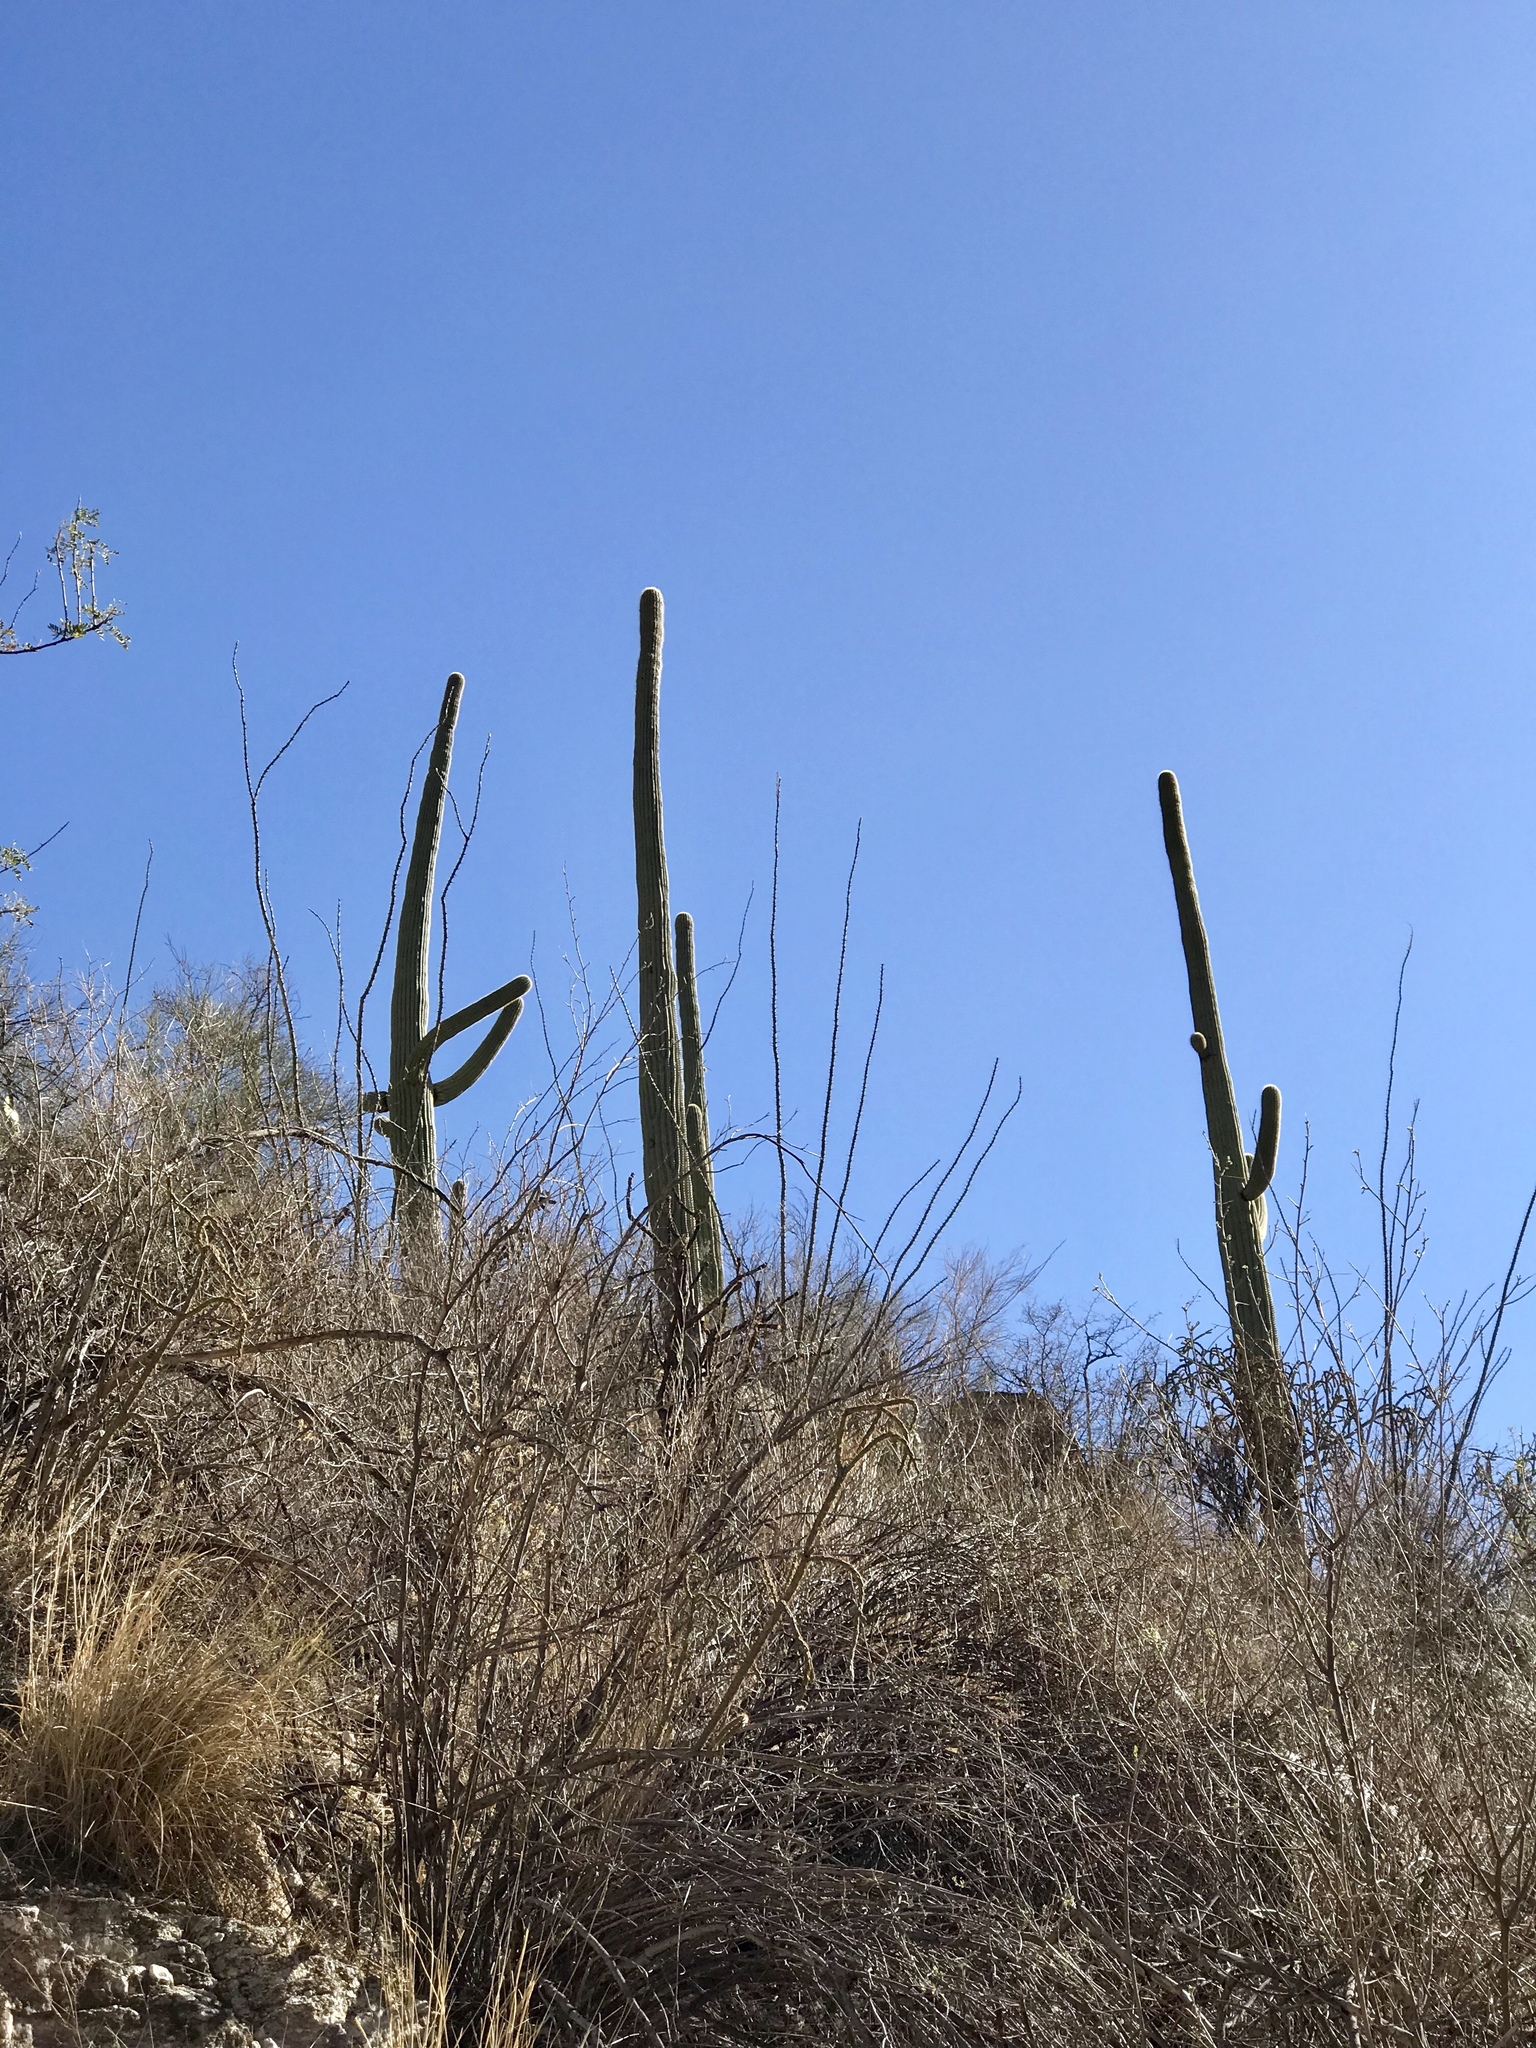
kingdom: Plantae
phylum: Tracheophyta
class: Magnoliopsida
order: Caryophyllales
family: Cactaceae
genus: Carnegiea
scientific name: Carnegiea gigantea
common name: Saguaro
